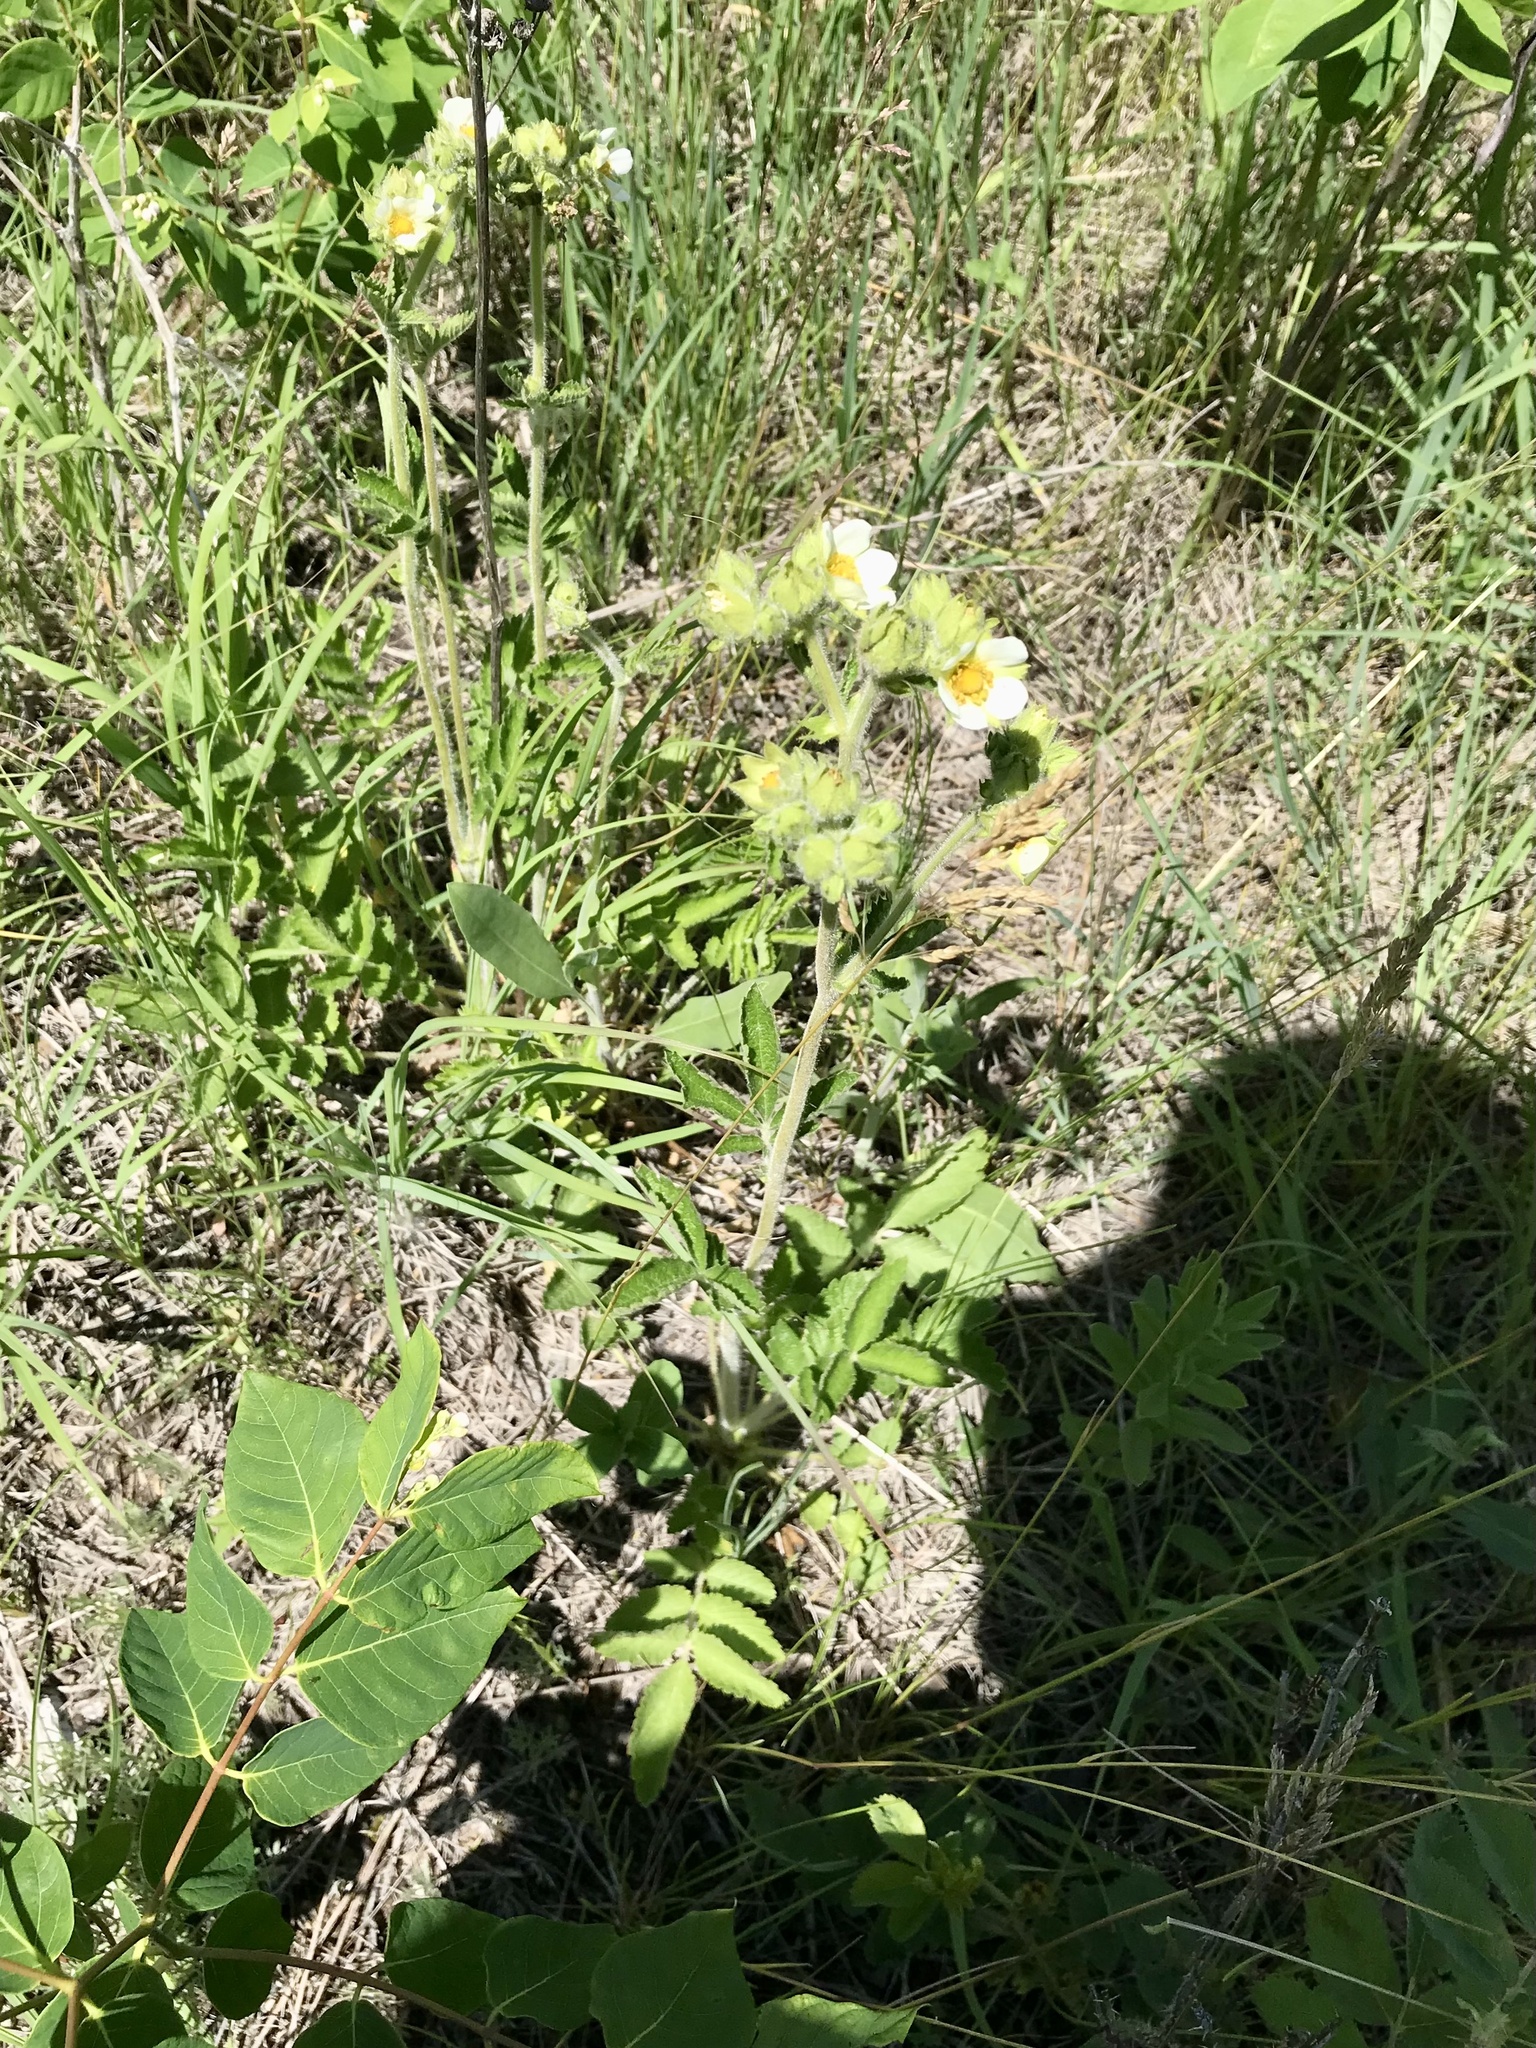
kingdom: Plantae
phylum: Tracheophyta
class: Magnoliopsida
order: Rosales
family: Rosaceae
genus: Drymocallis
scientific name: Drymocallis arguta
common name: Tall cinquefoil
